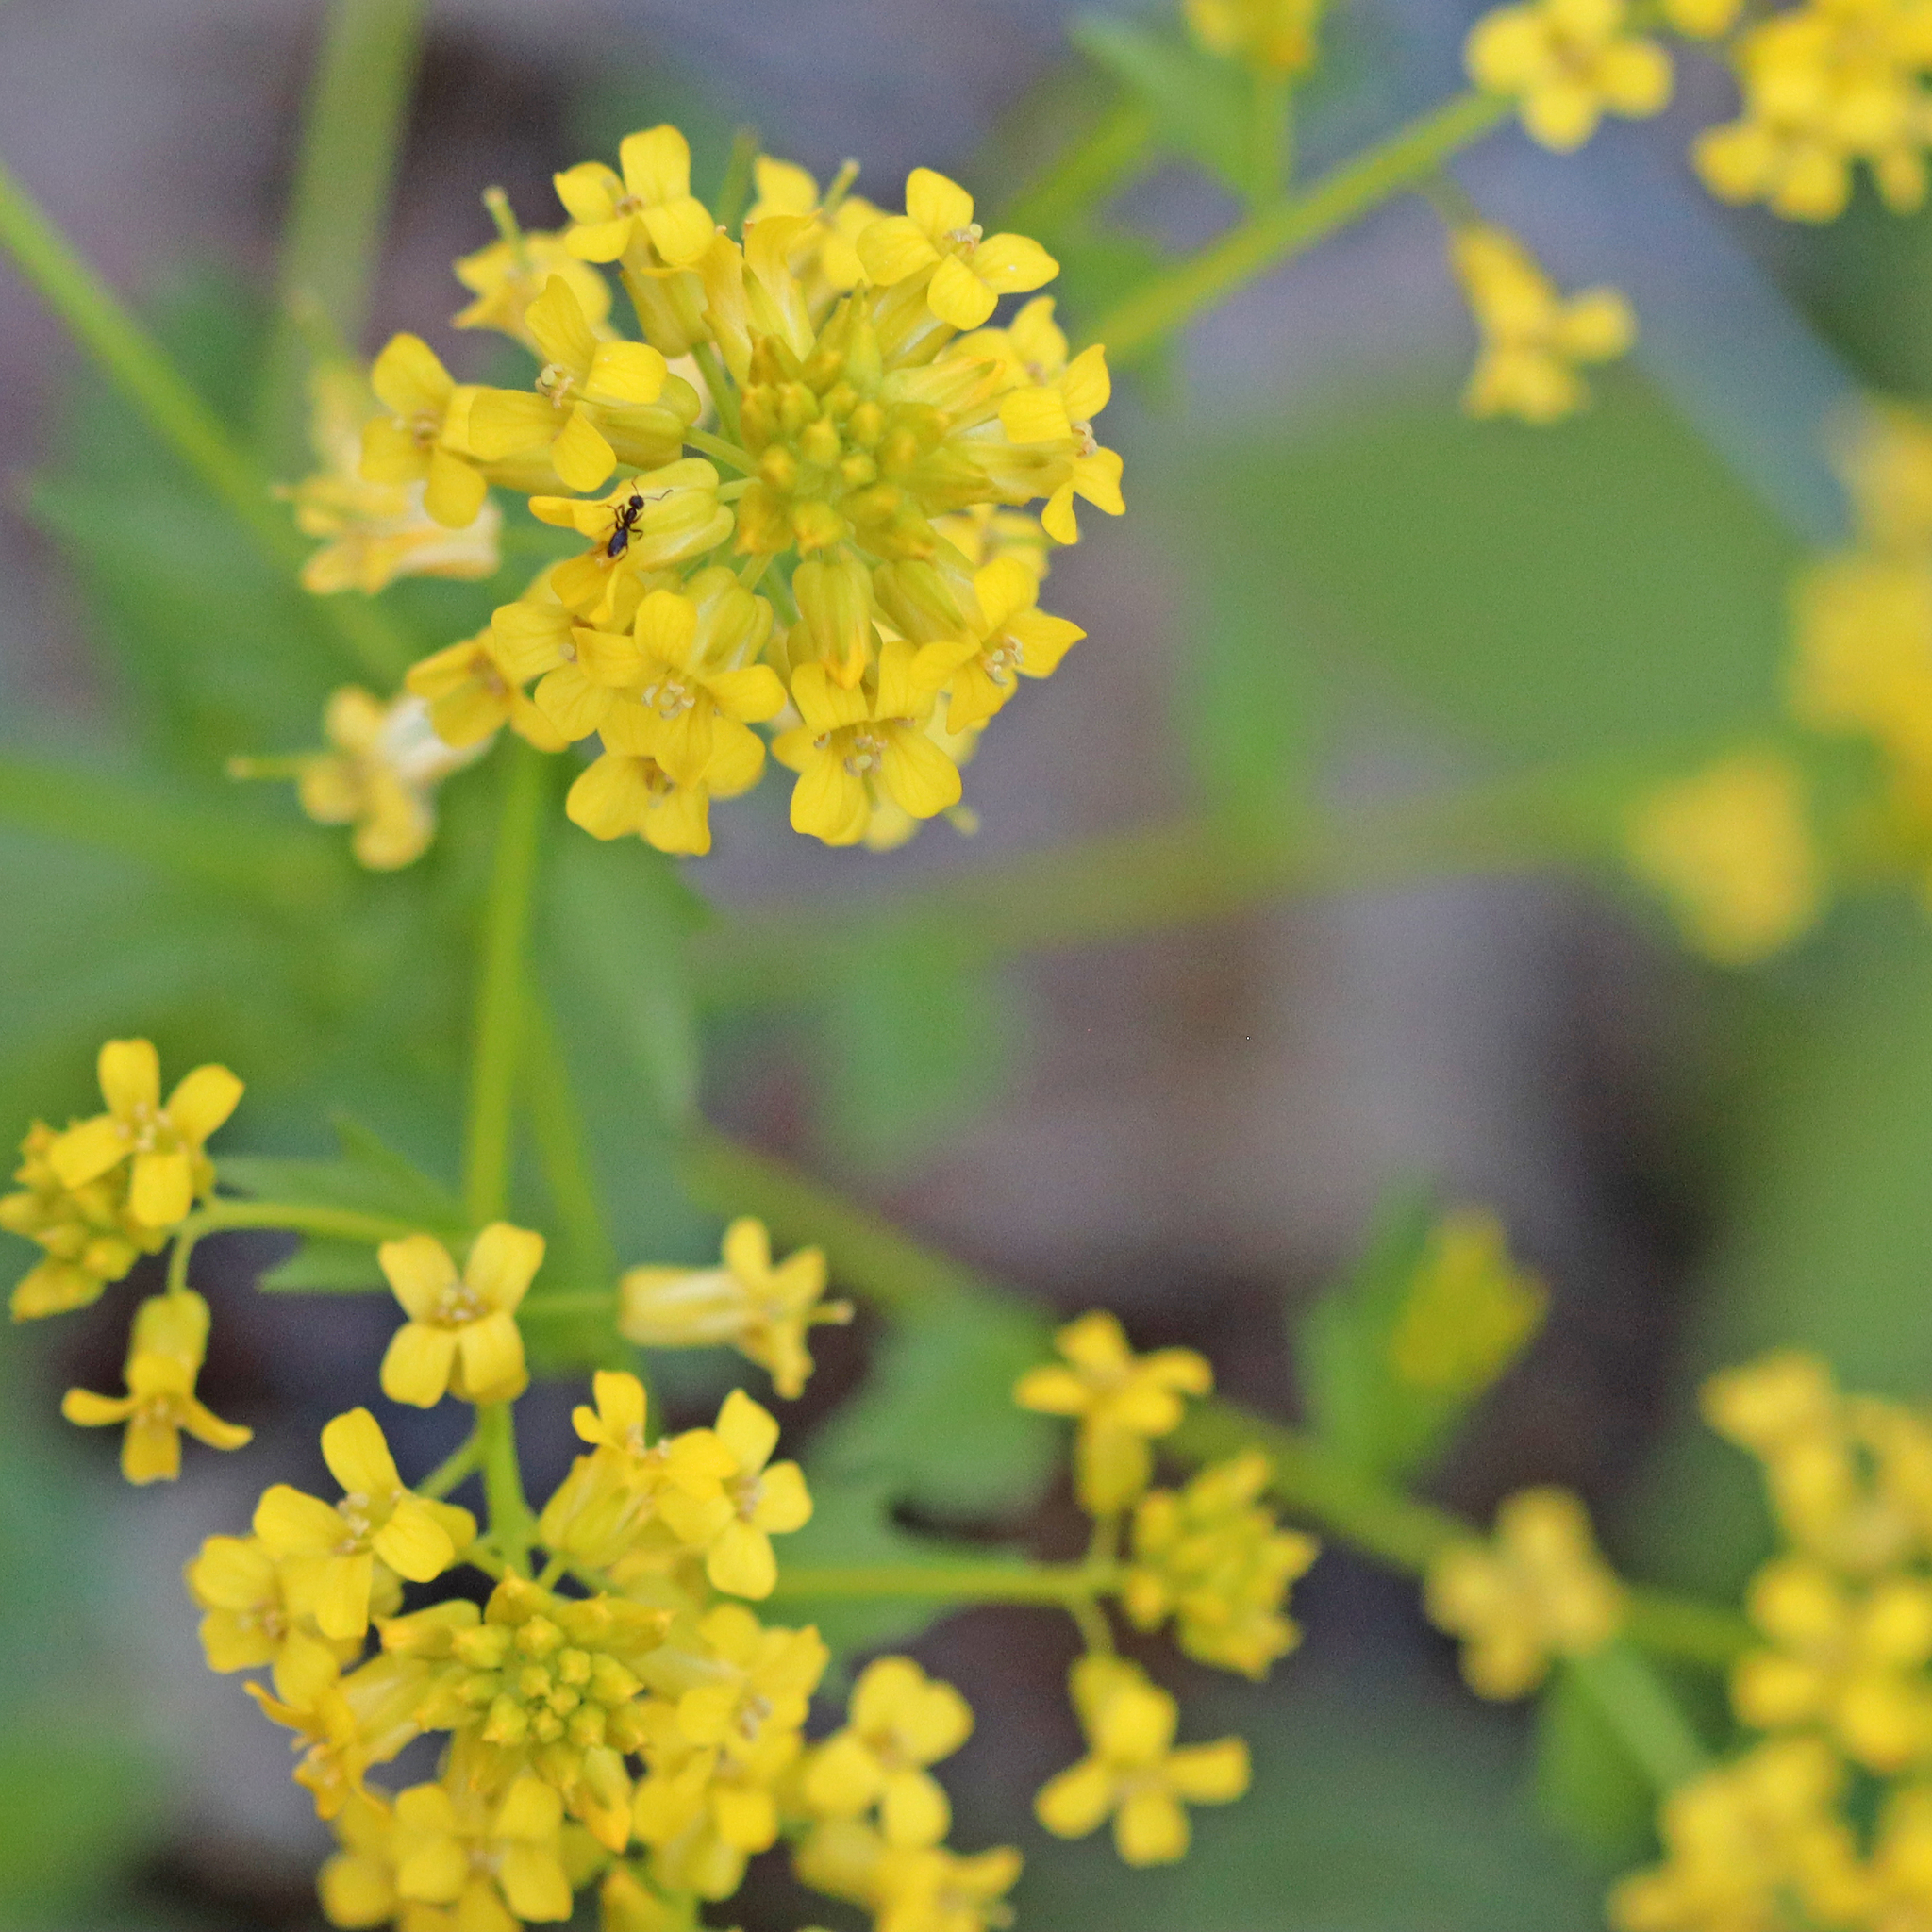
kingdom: Plantae
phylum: Tracheophyta
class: Magnoliopsida
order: Brassicales
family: Brassicaceae
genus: Barbarea
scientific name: Barbarea vulgaris
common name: Cressy-greens
